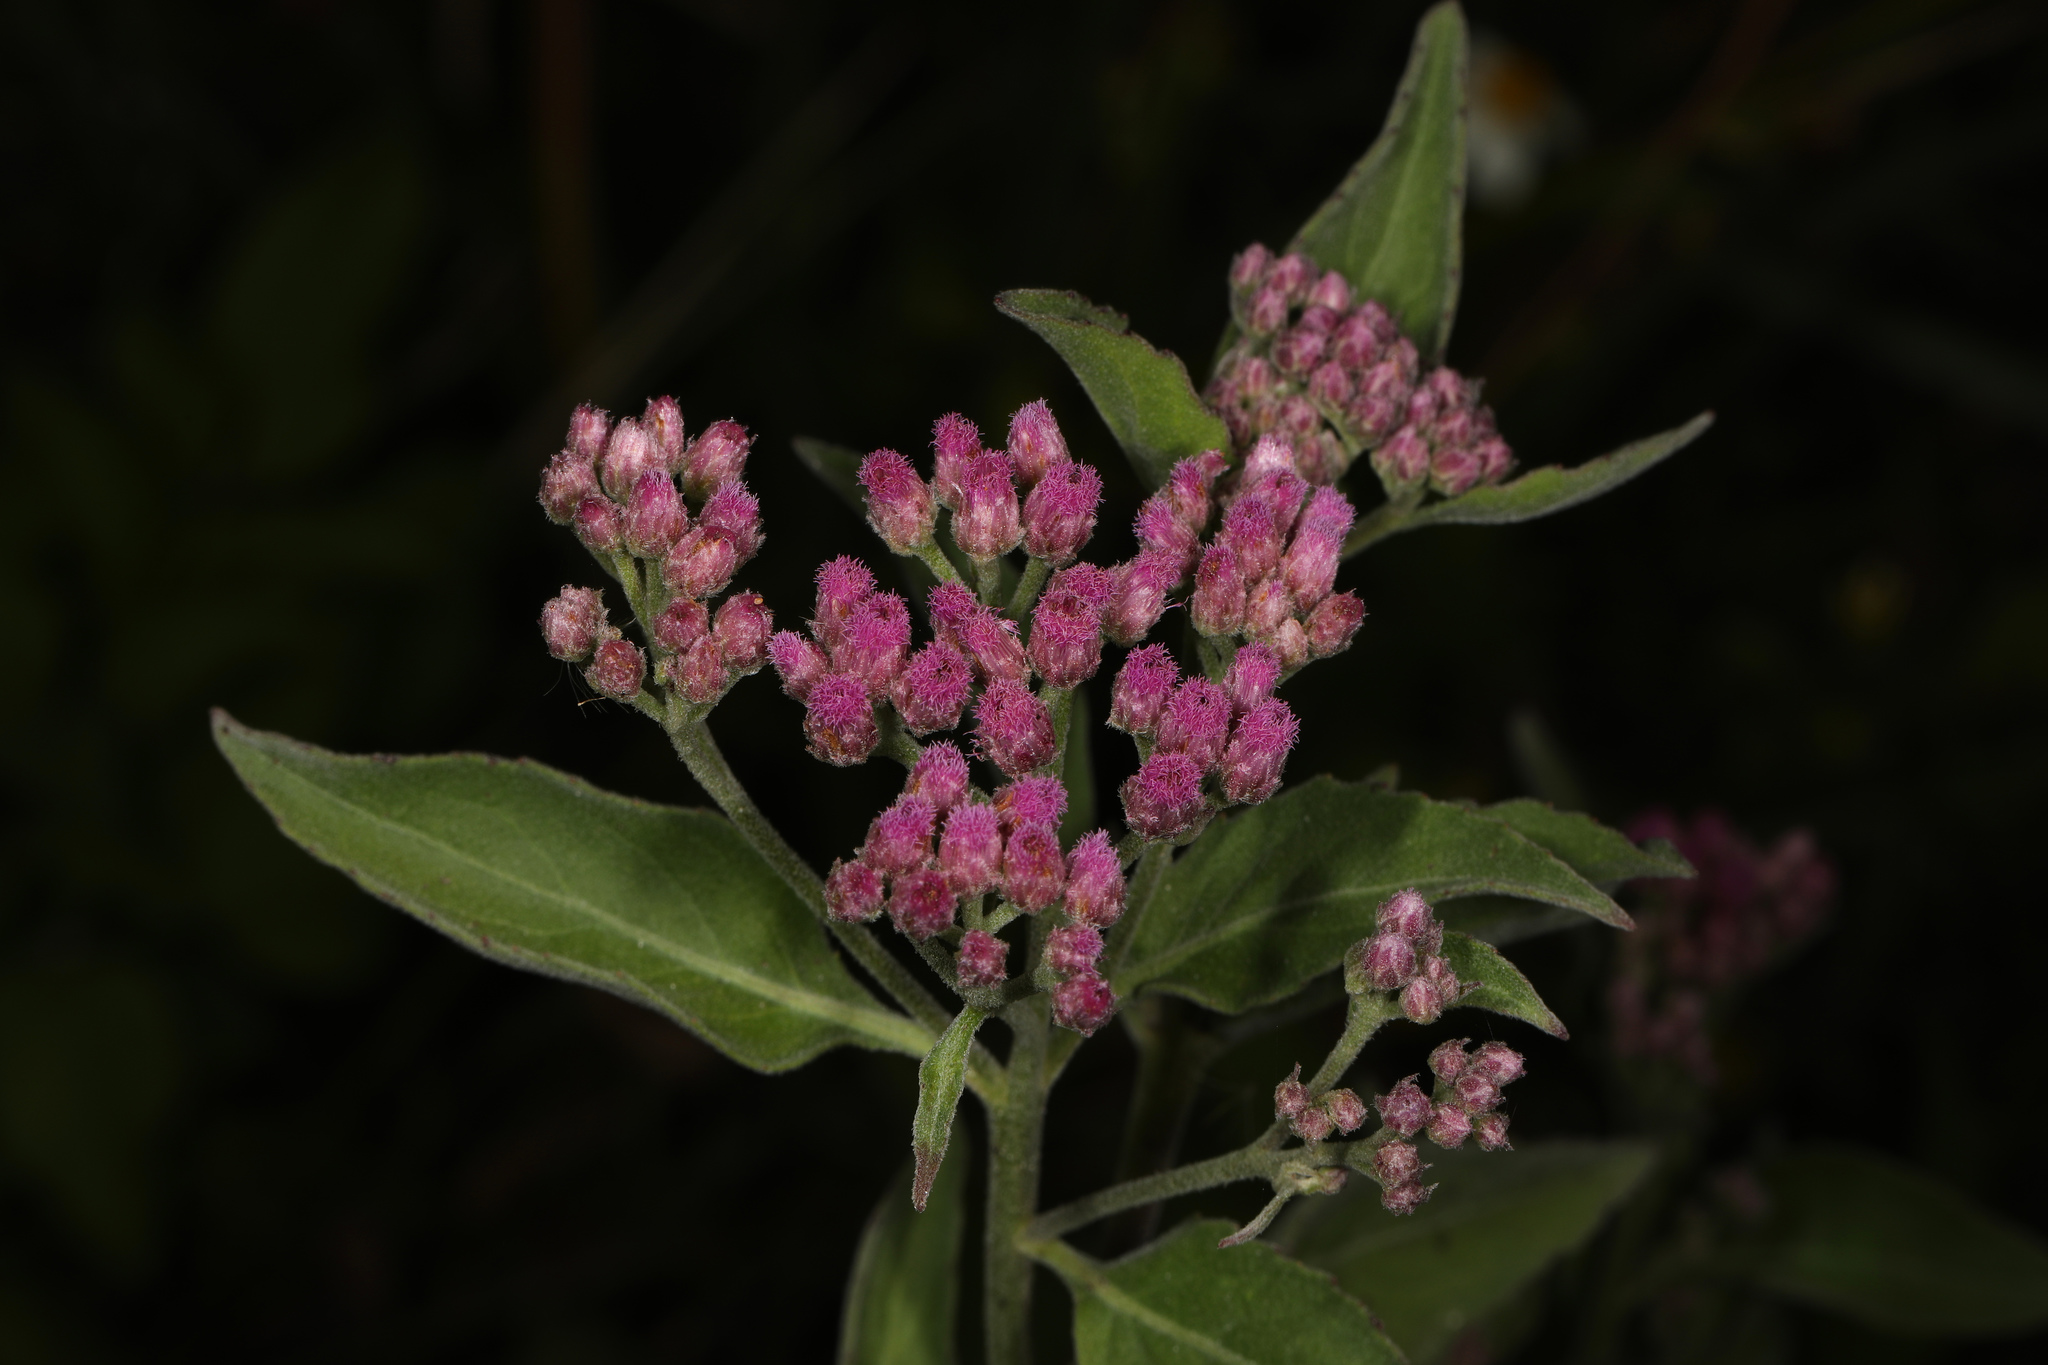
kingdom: Plantae
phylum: Tracheophyta
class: Magnoliopsida
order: Asterales
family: Asteraceae
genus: Pluchea
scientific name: Pluchea odorata
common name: Saltmarsh fleabane
